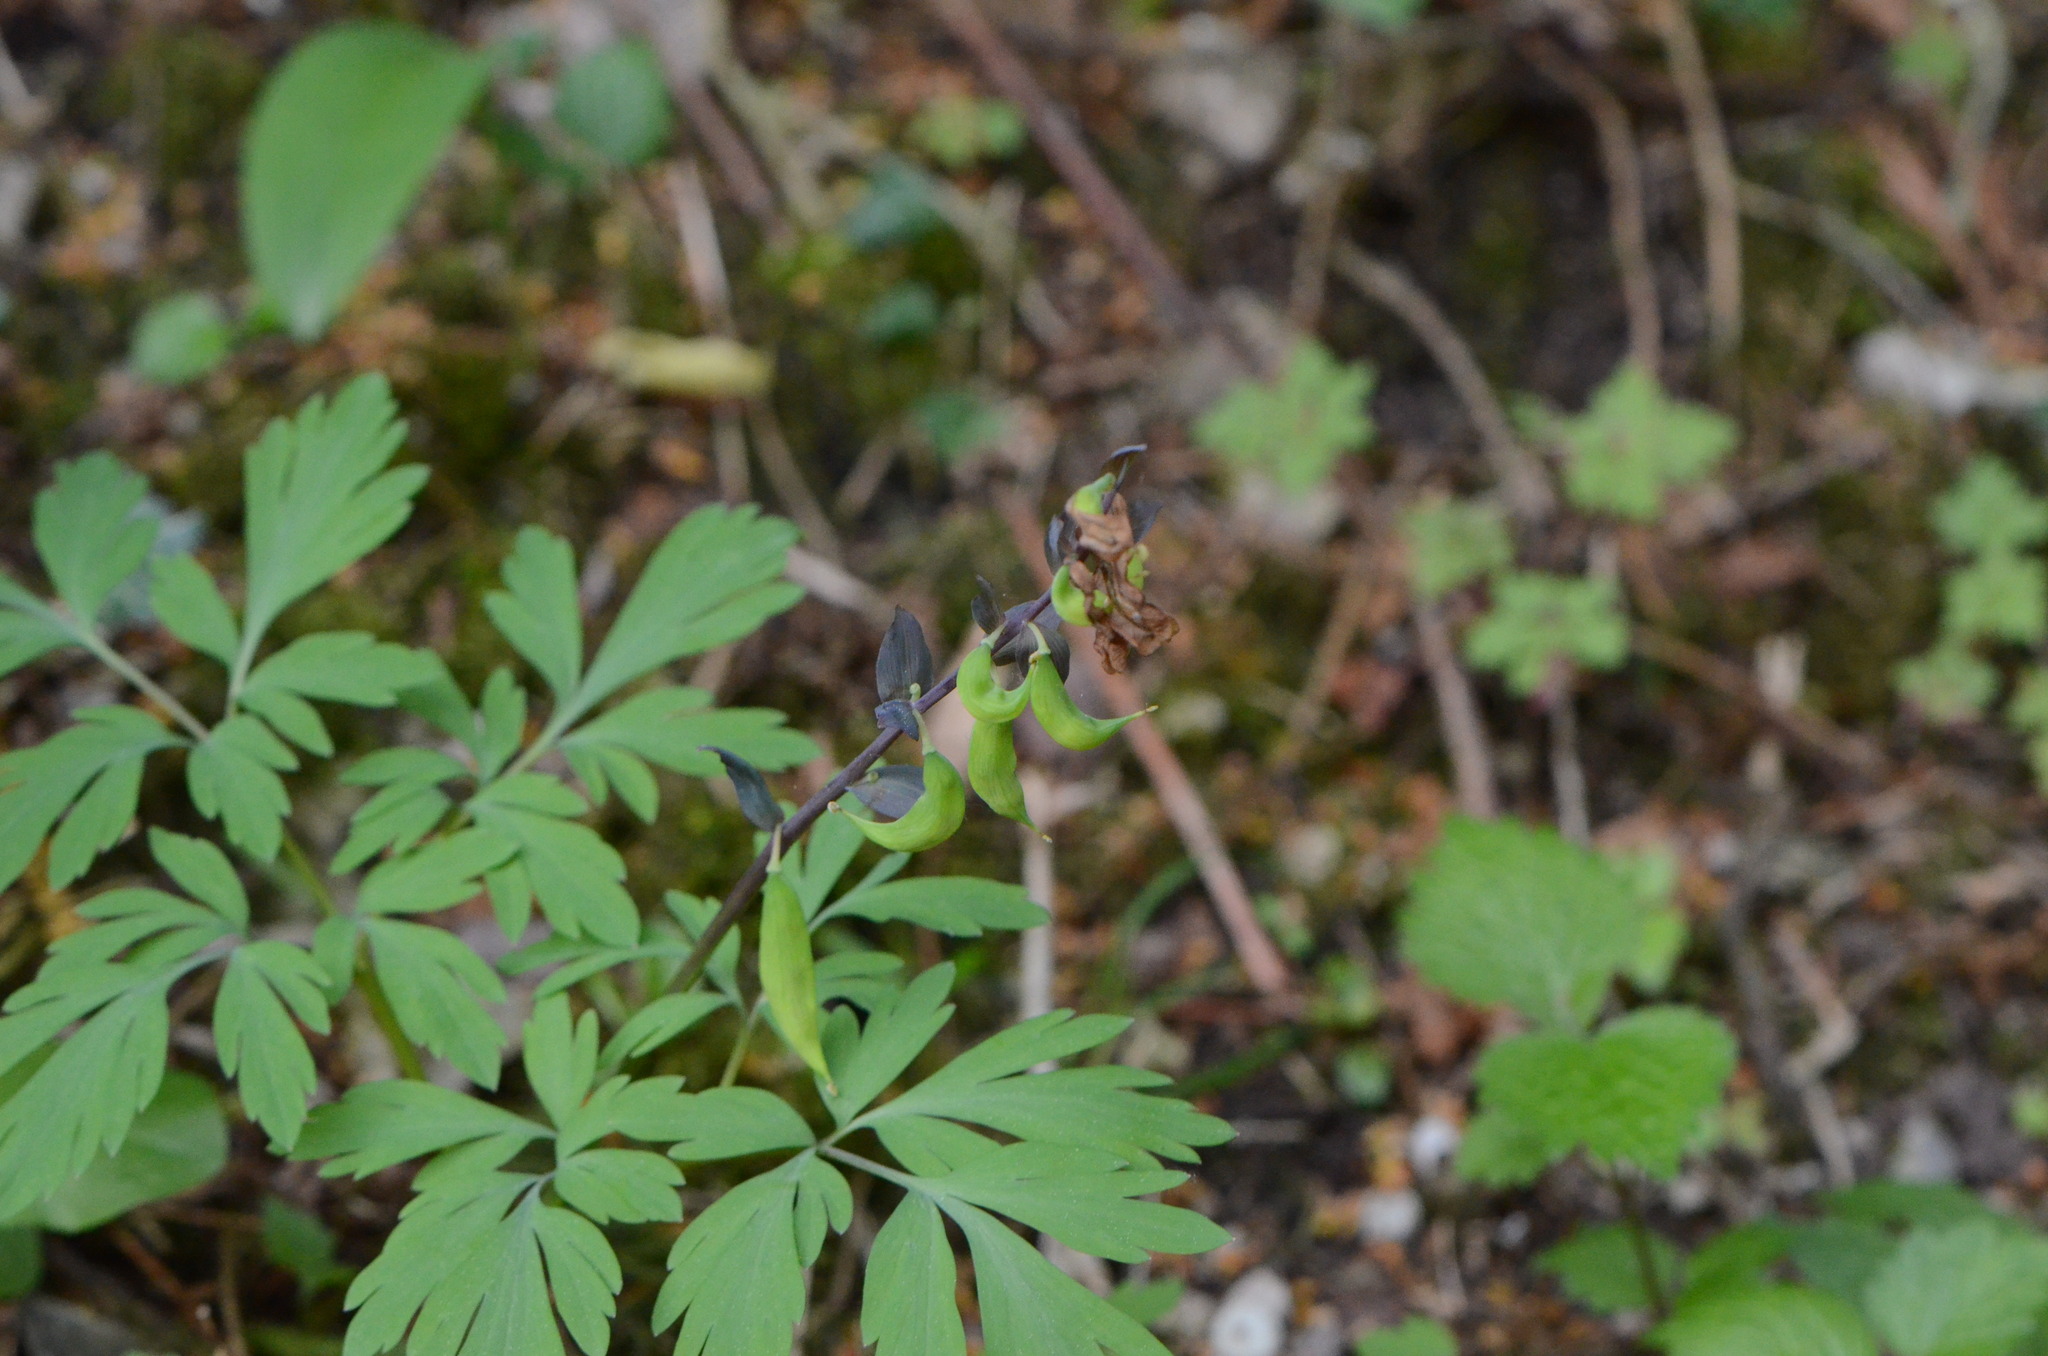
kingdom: Plantae
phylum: Tracheophyta
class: Magnoliopsida
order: Ranunculales
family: Papaveraceae
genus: Corydalis
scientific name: Corydalis cava
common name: Hollowroot
